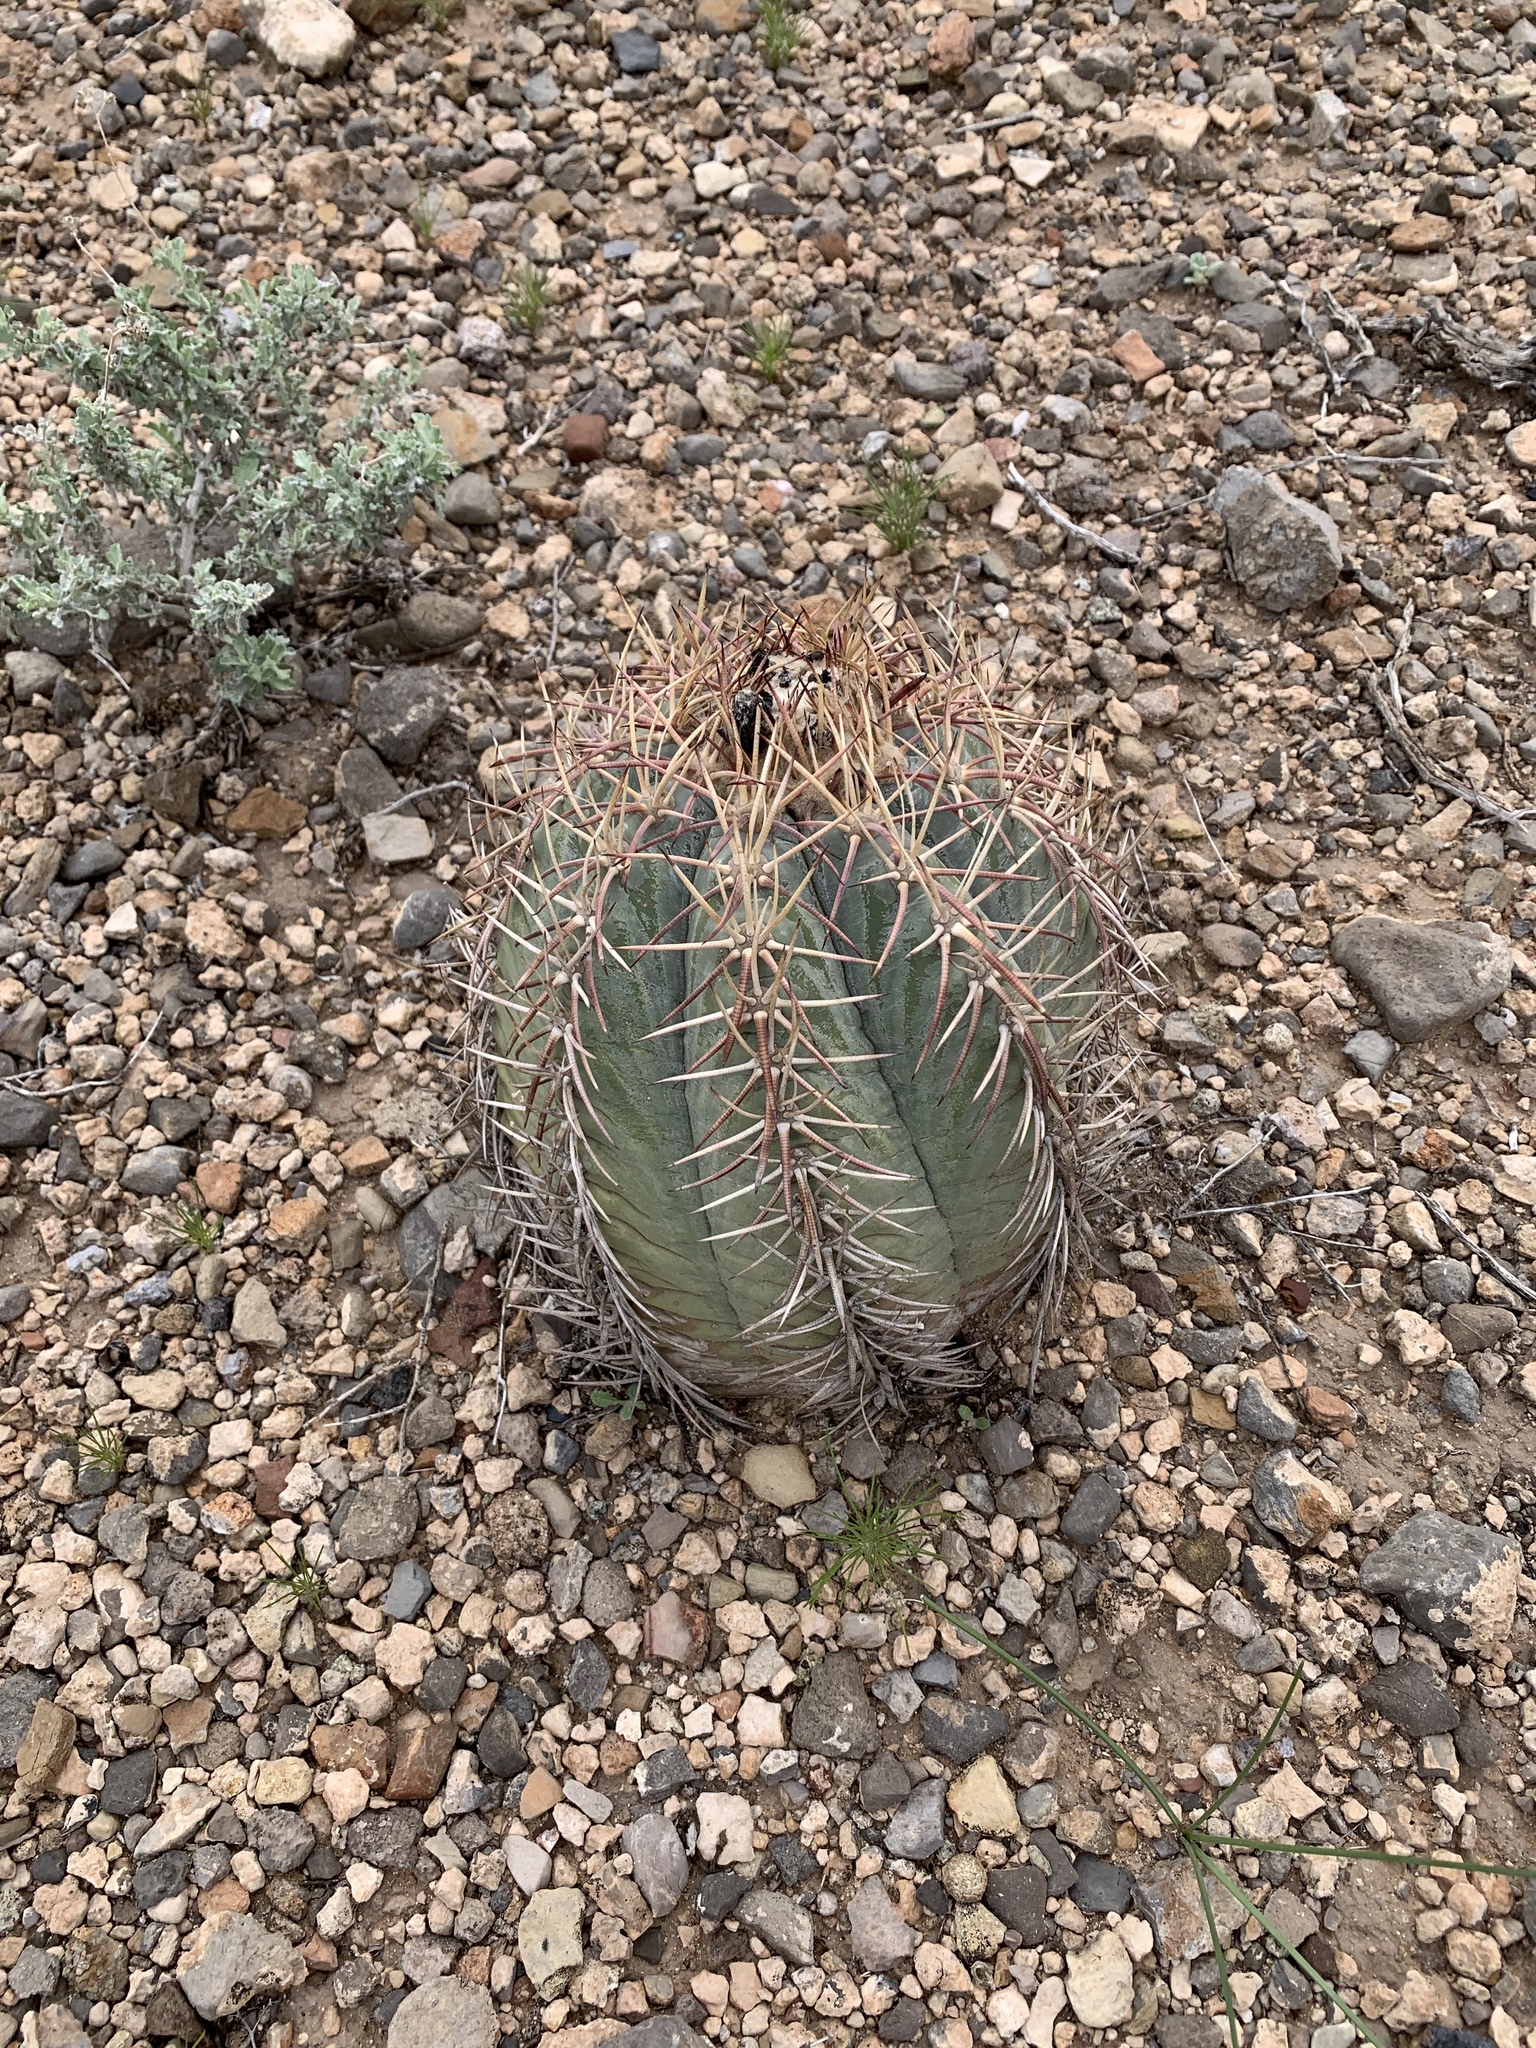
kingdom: Plantae
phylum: Tracheophyta
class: Magnoliopsida
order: Caryophyllales
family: Cactaceae
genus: Echinocactus
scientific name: Echinocactus horizonthalonius
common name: Devilshead
